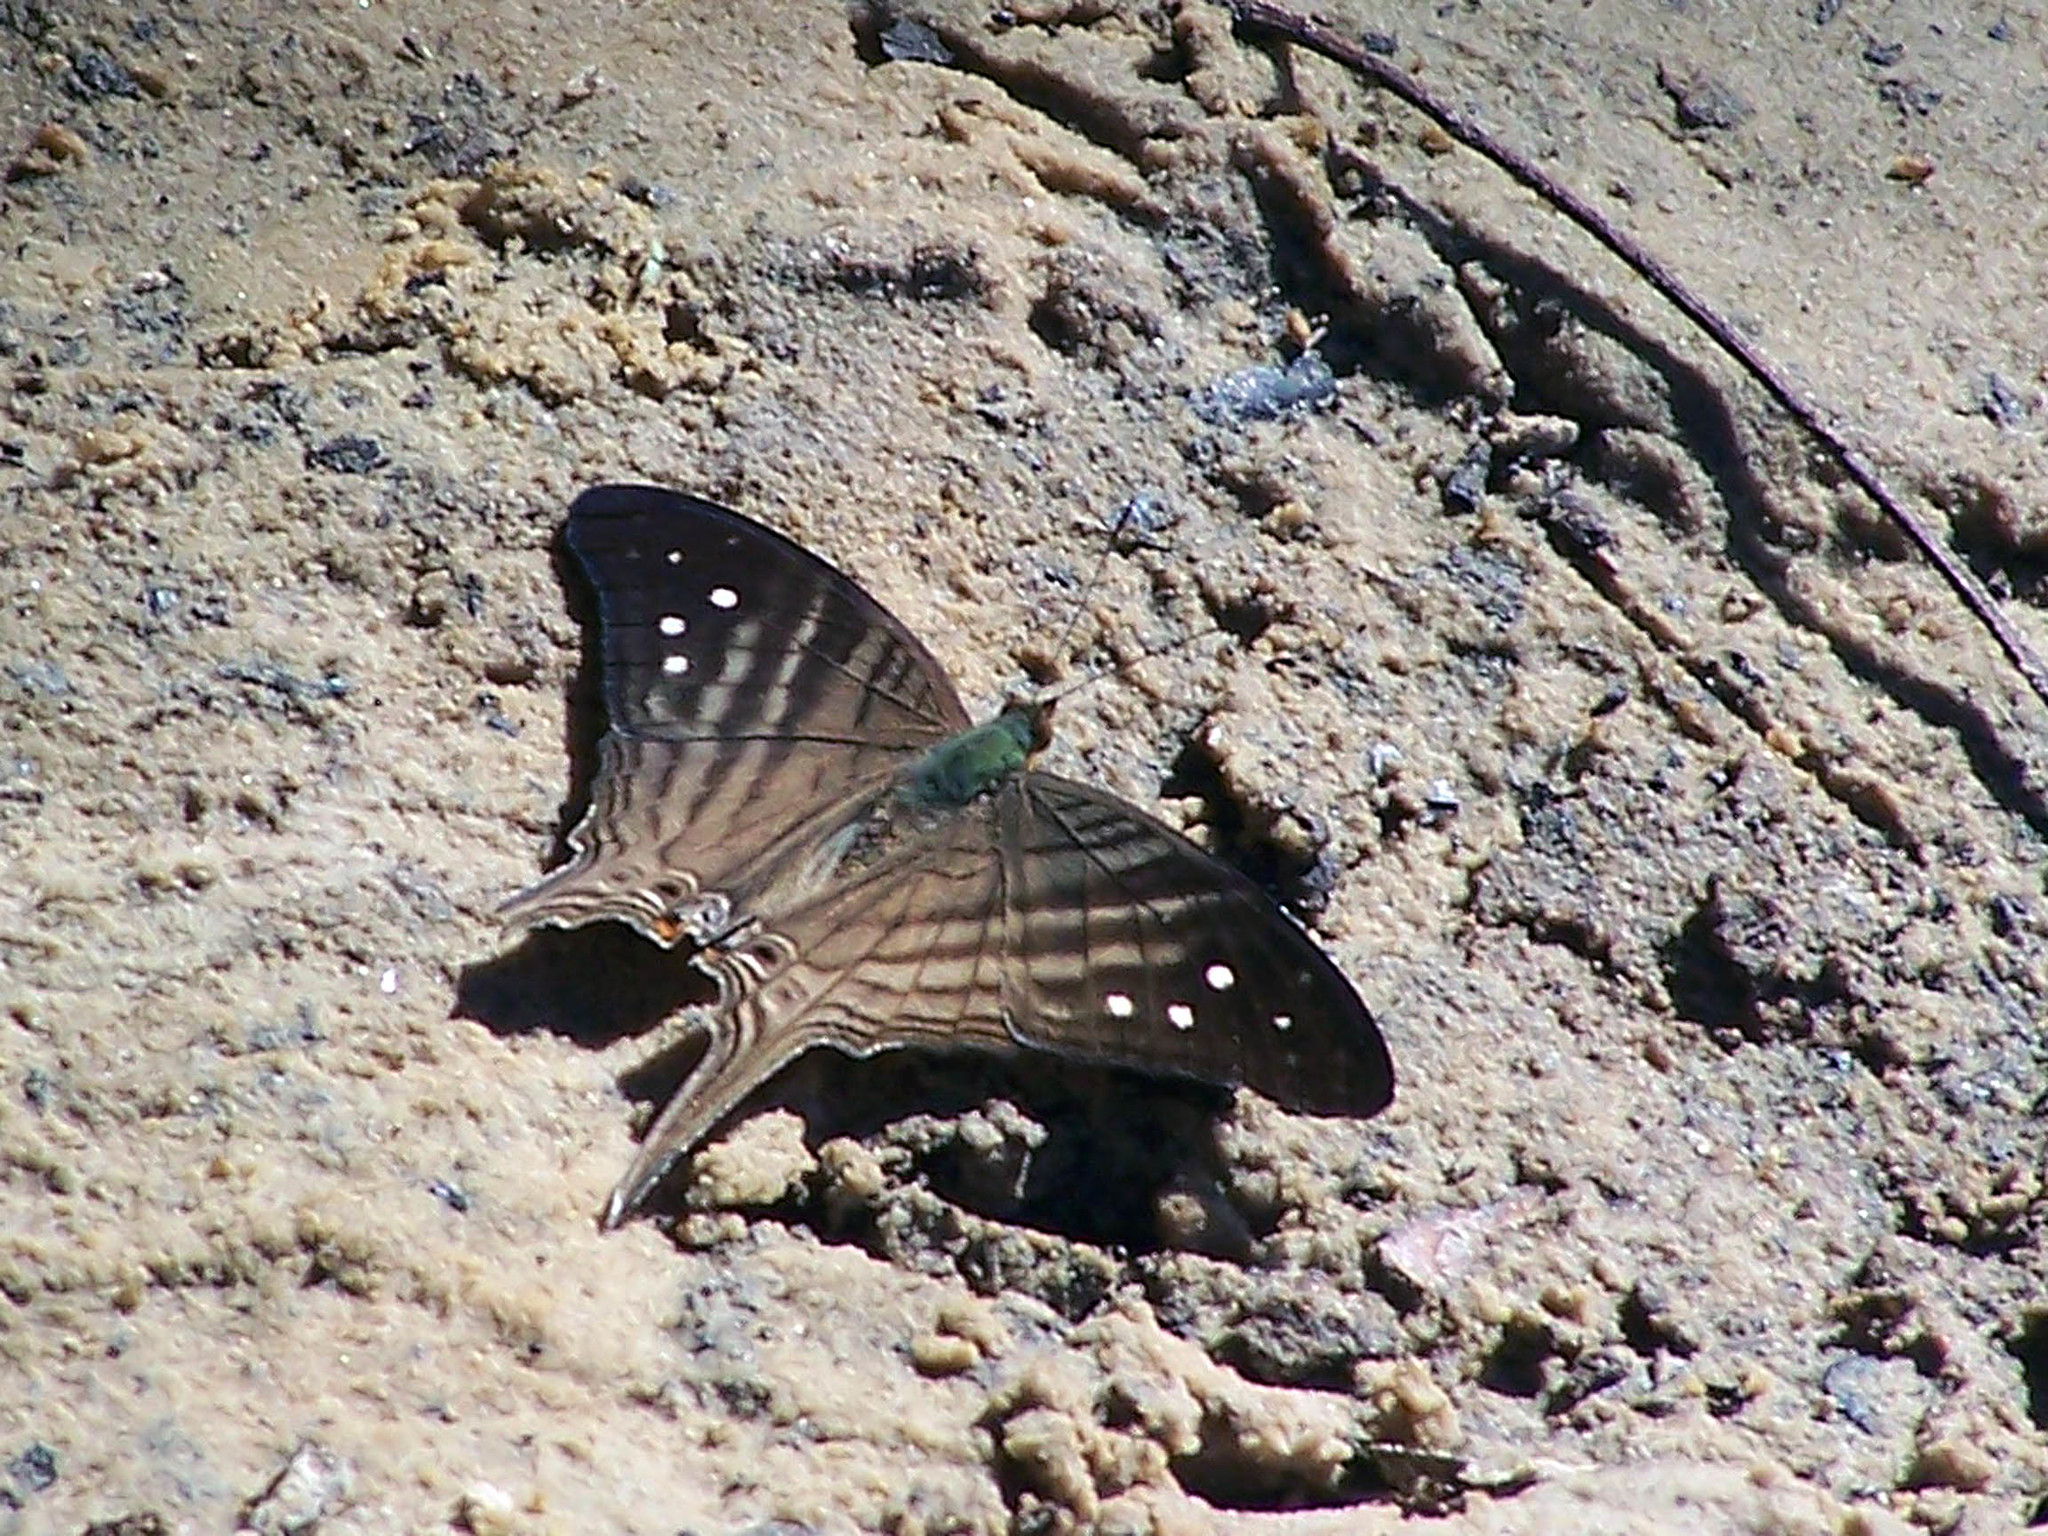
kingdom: Animalia
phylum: Arthropoda
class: Insecta
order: Lepidoptera
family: Nymphalidae
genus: Marpesia
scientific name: Marpesia egina
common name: Egina daggerwing
